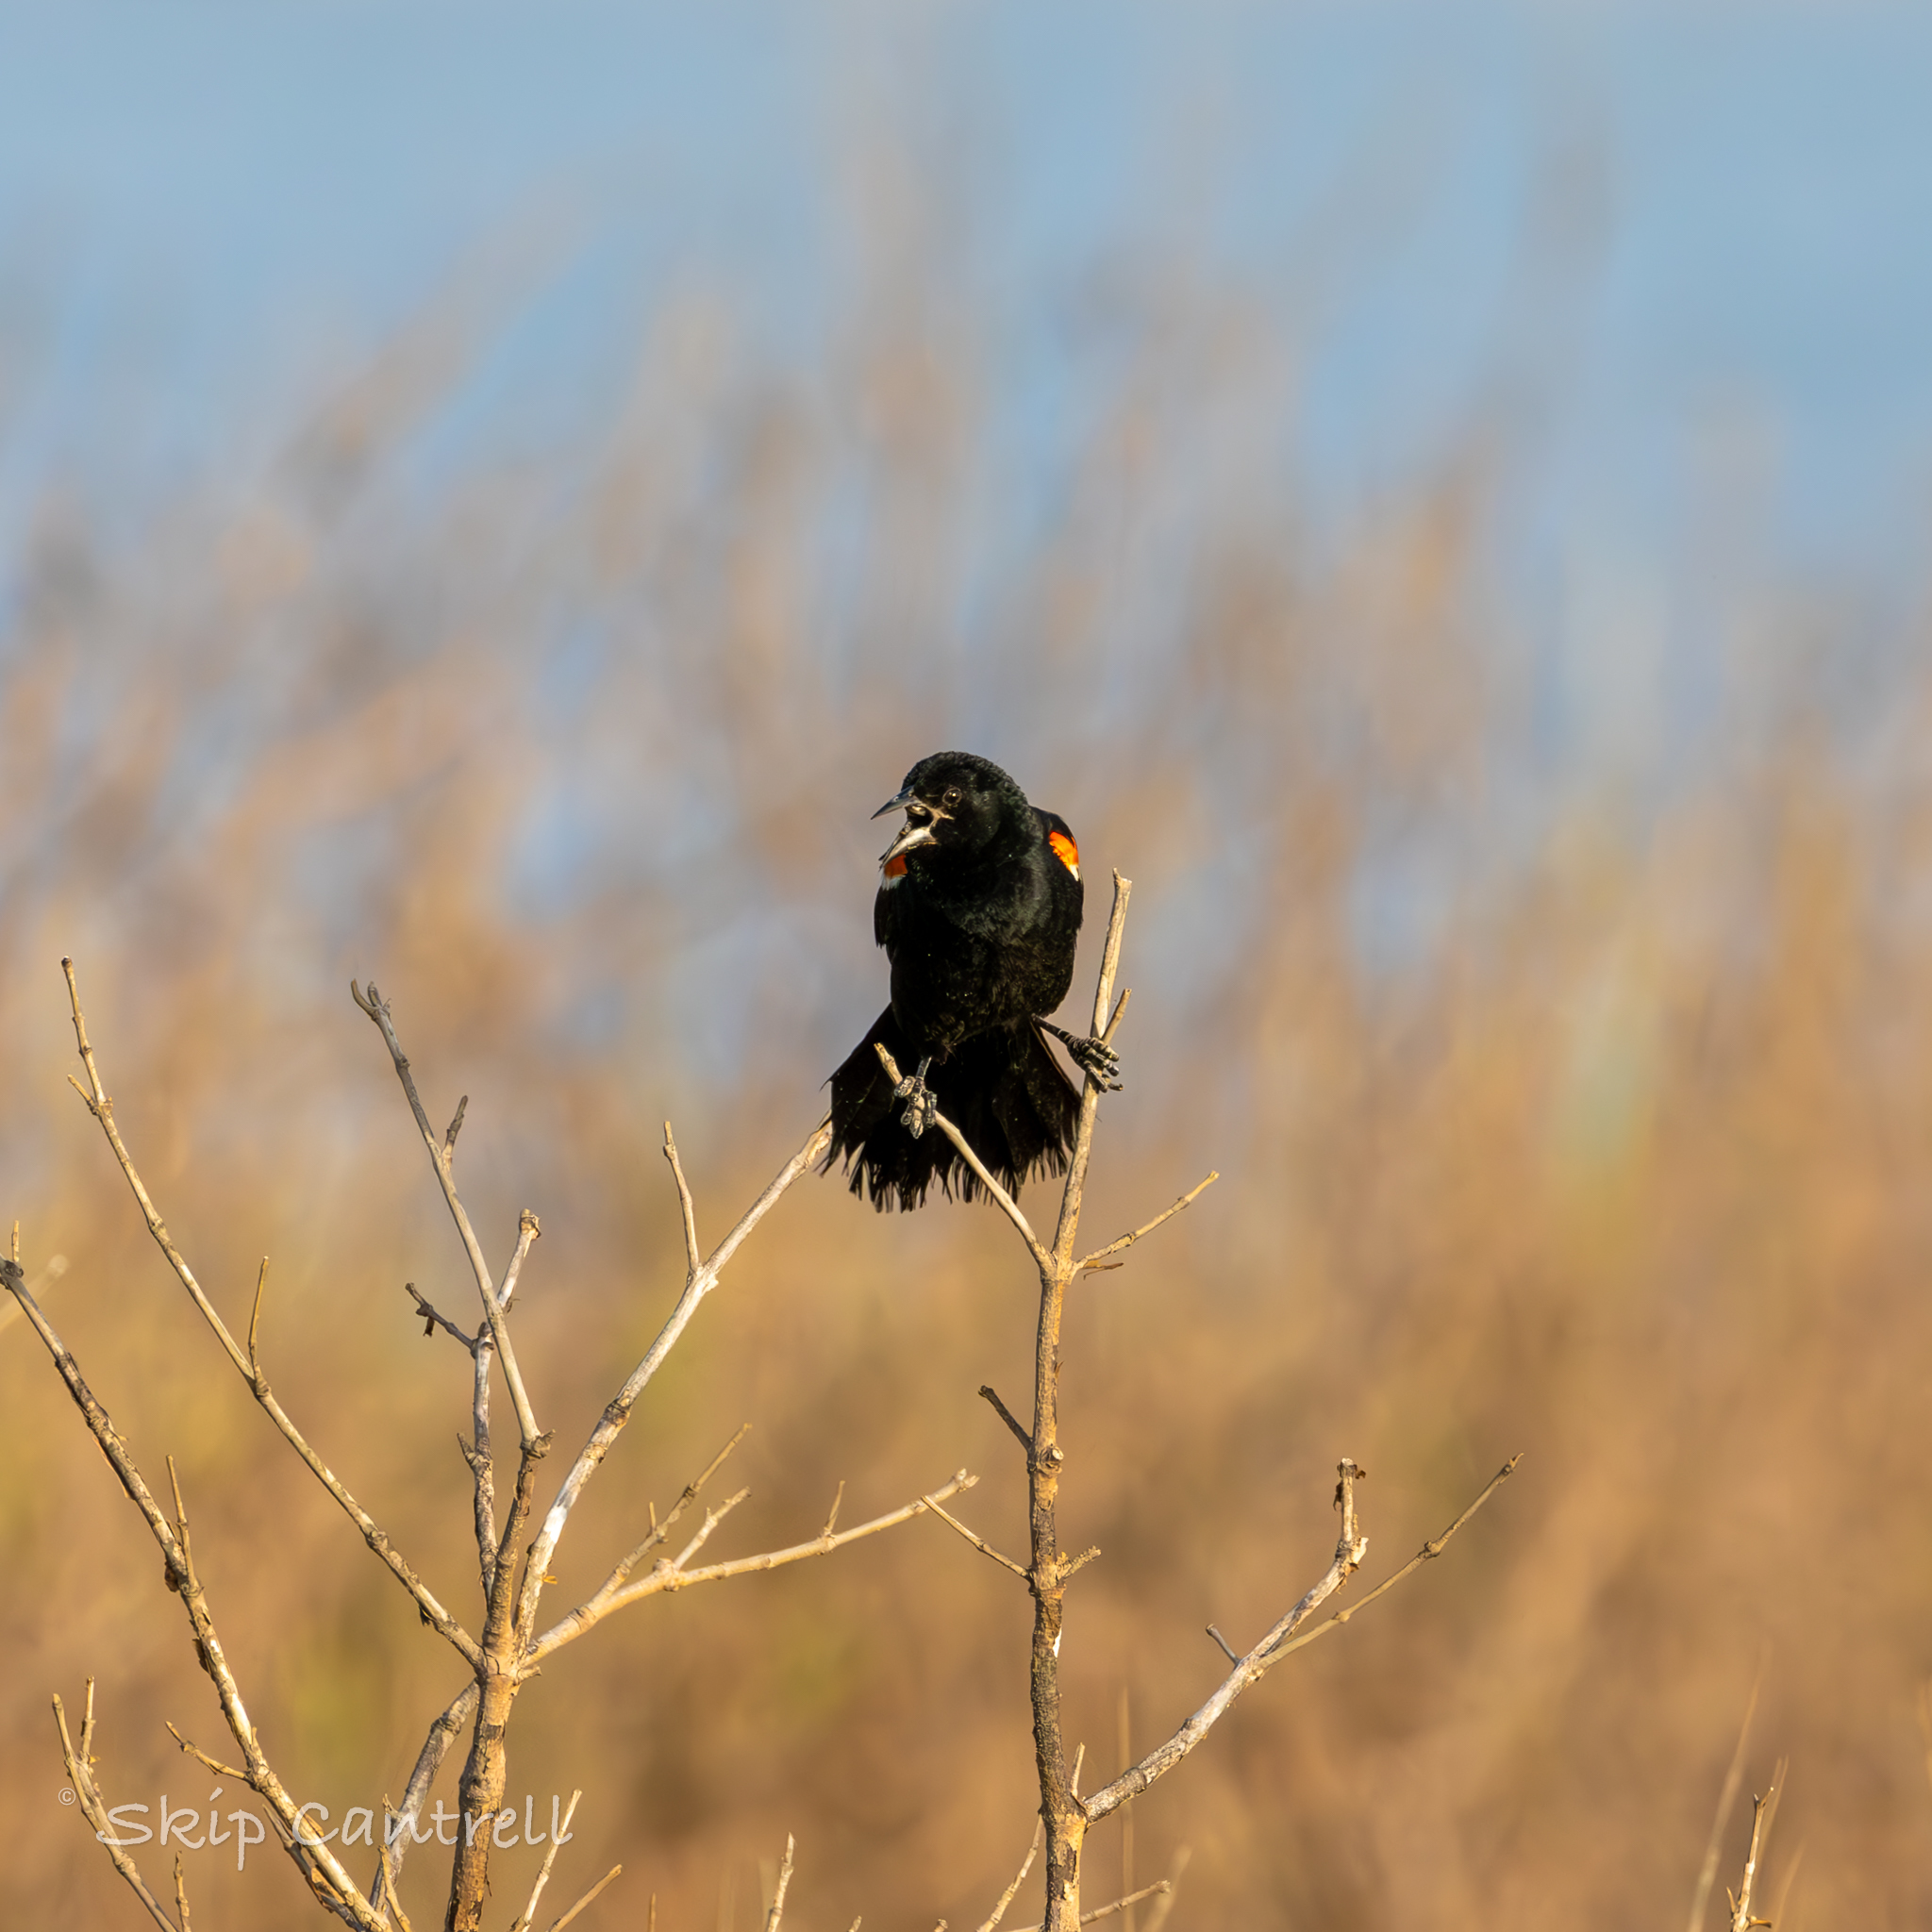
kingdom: Animalia
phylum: Chordata
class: Aves
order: Passeriformes
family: Icteridae
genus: Agelaius
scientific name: Agelaius phoeniceus
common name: Red-winged blackbird
